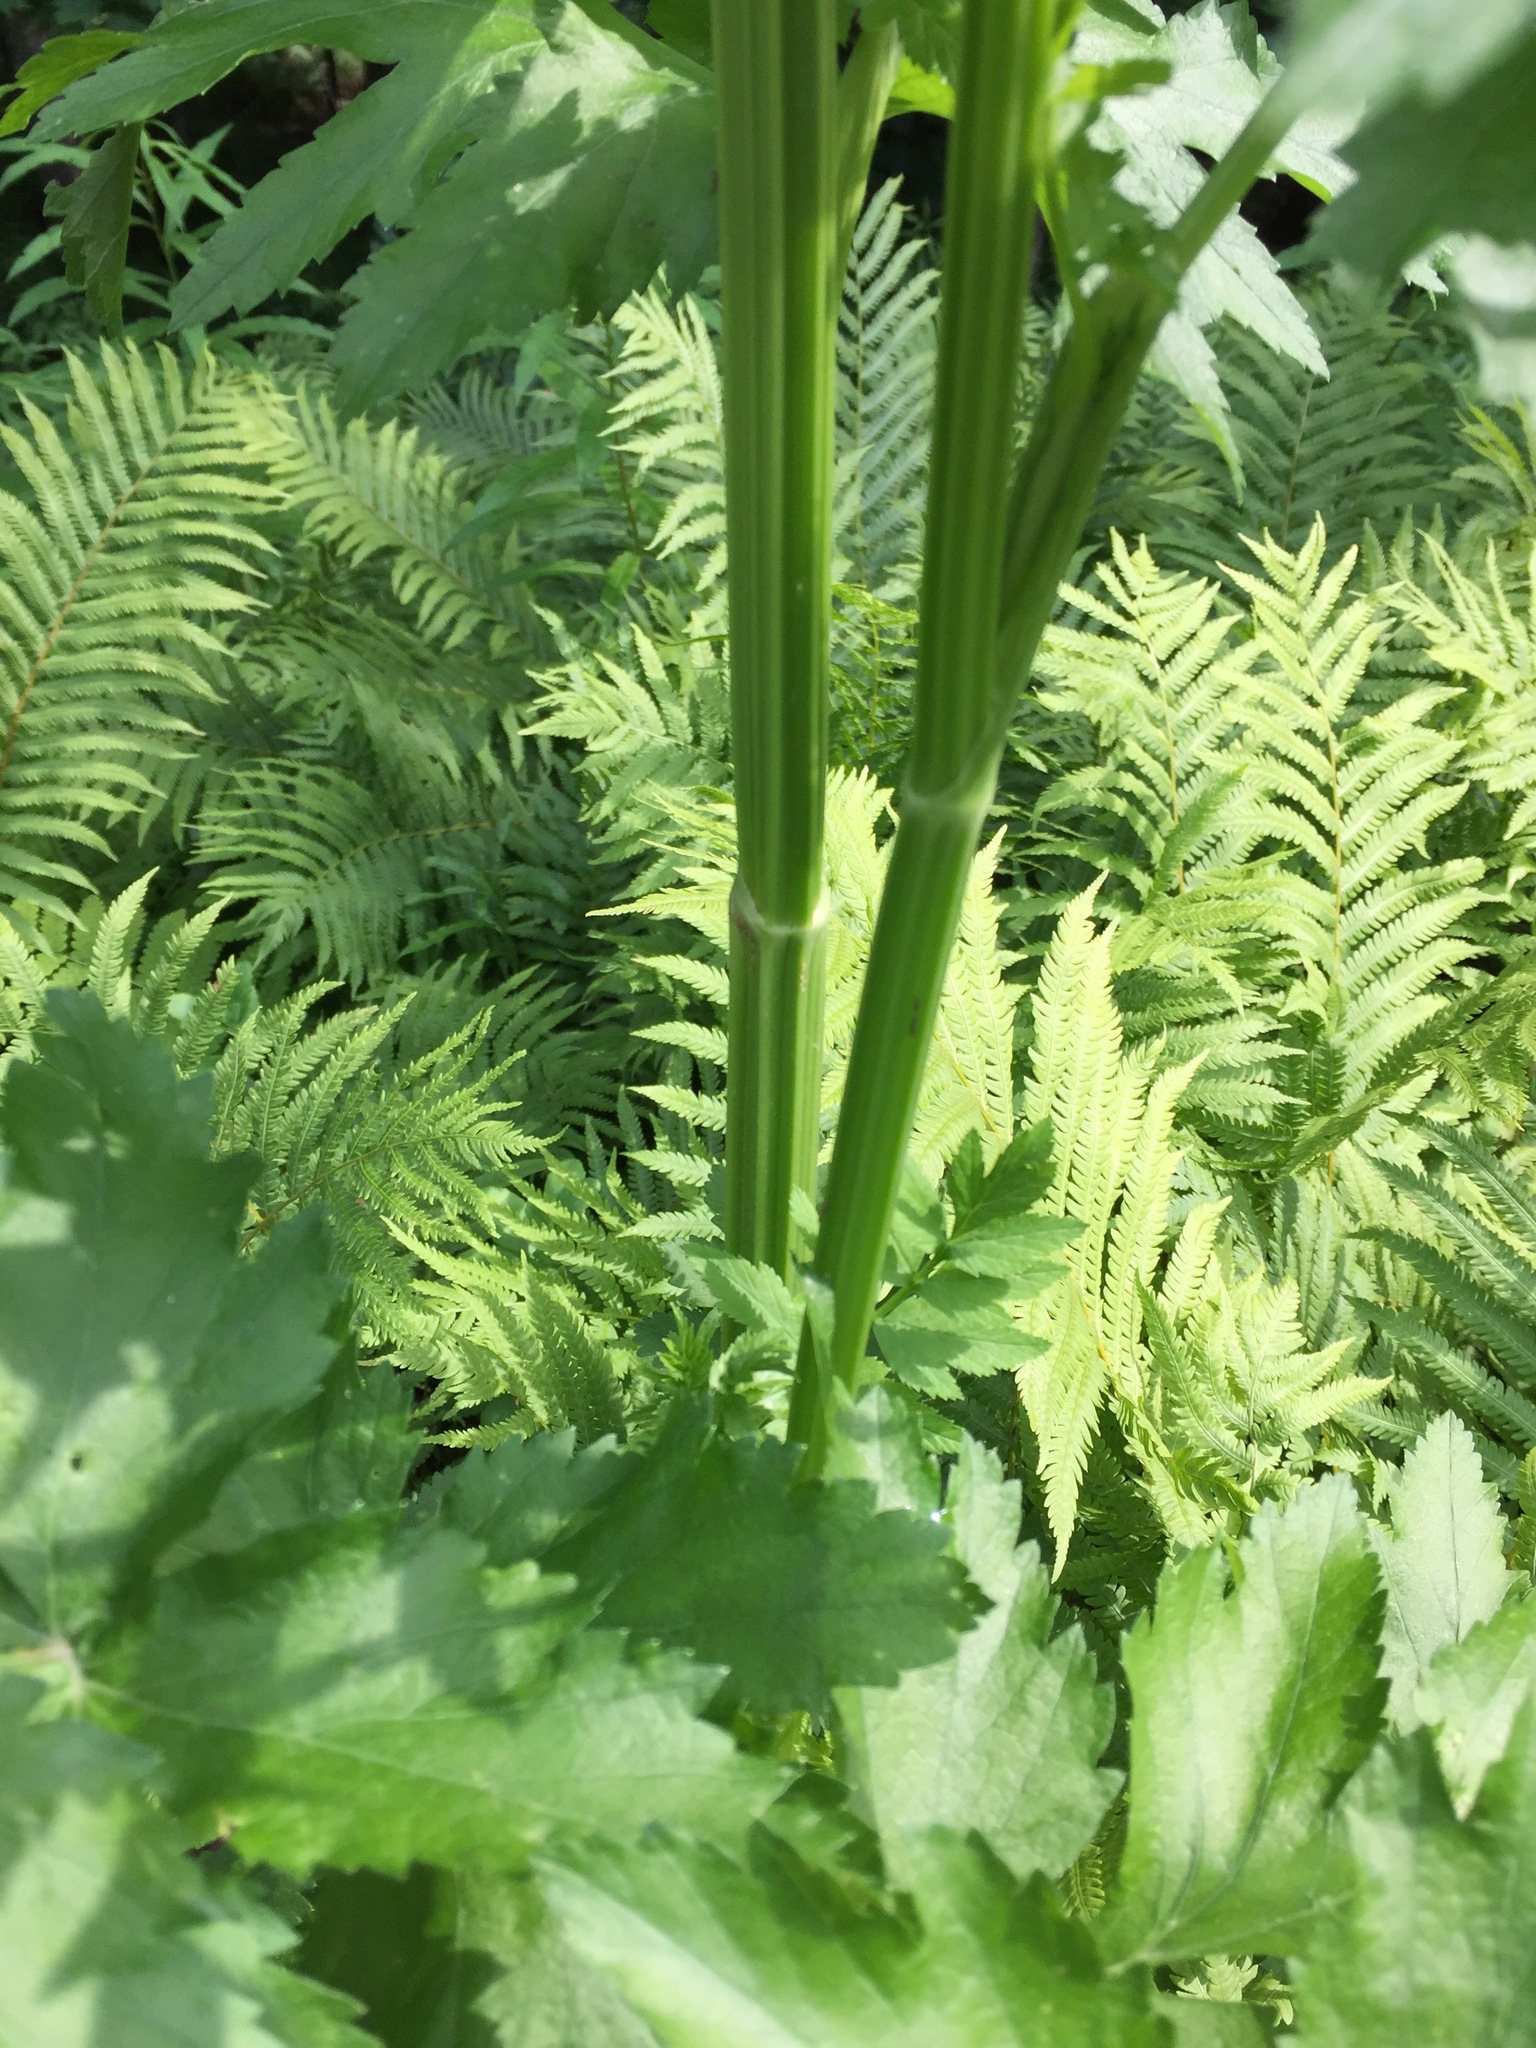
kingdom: Plantae
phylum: Tracheophyta
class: Magnoliopsida
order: Apiales
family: Apiaceae
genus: Pastinaca
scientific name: Pastinaca sativa
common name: Wild parsnip
